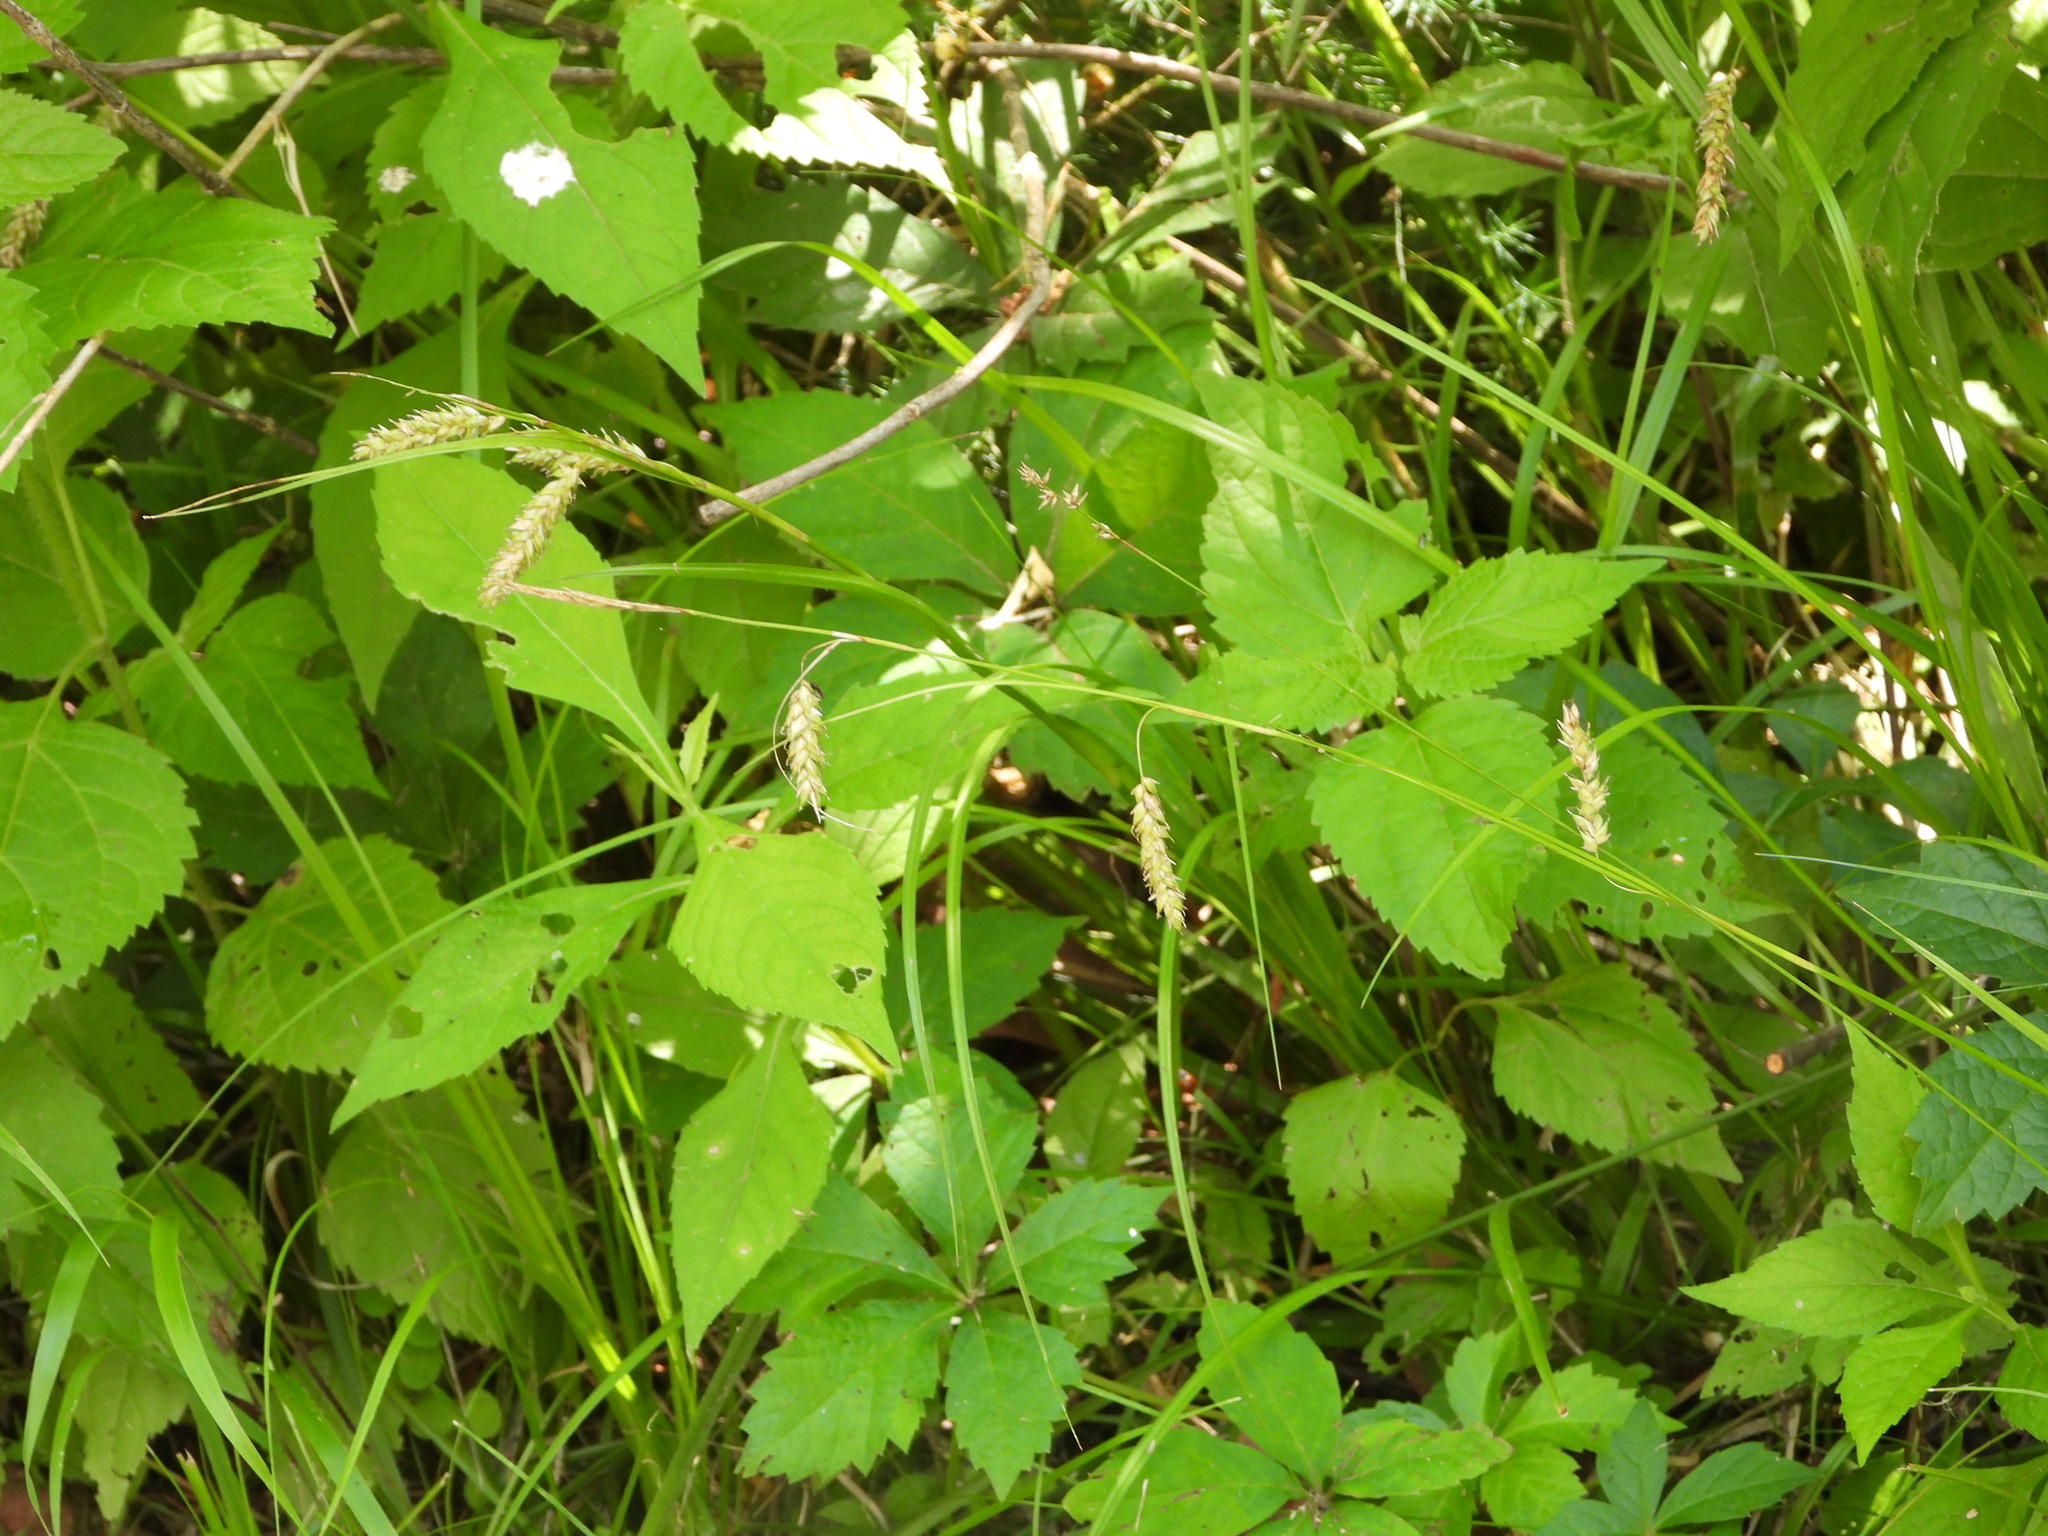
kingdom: Plantae
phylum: Tracheophyta
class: Liliopsida
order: Poales
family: Cyperaceae
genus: Carex
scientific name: Carex cherokeensis
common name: Cherokee sedge
